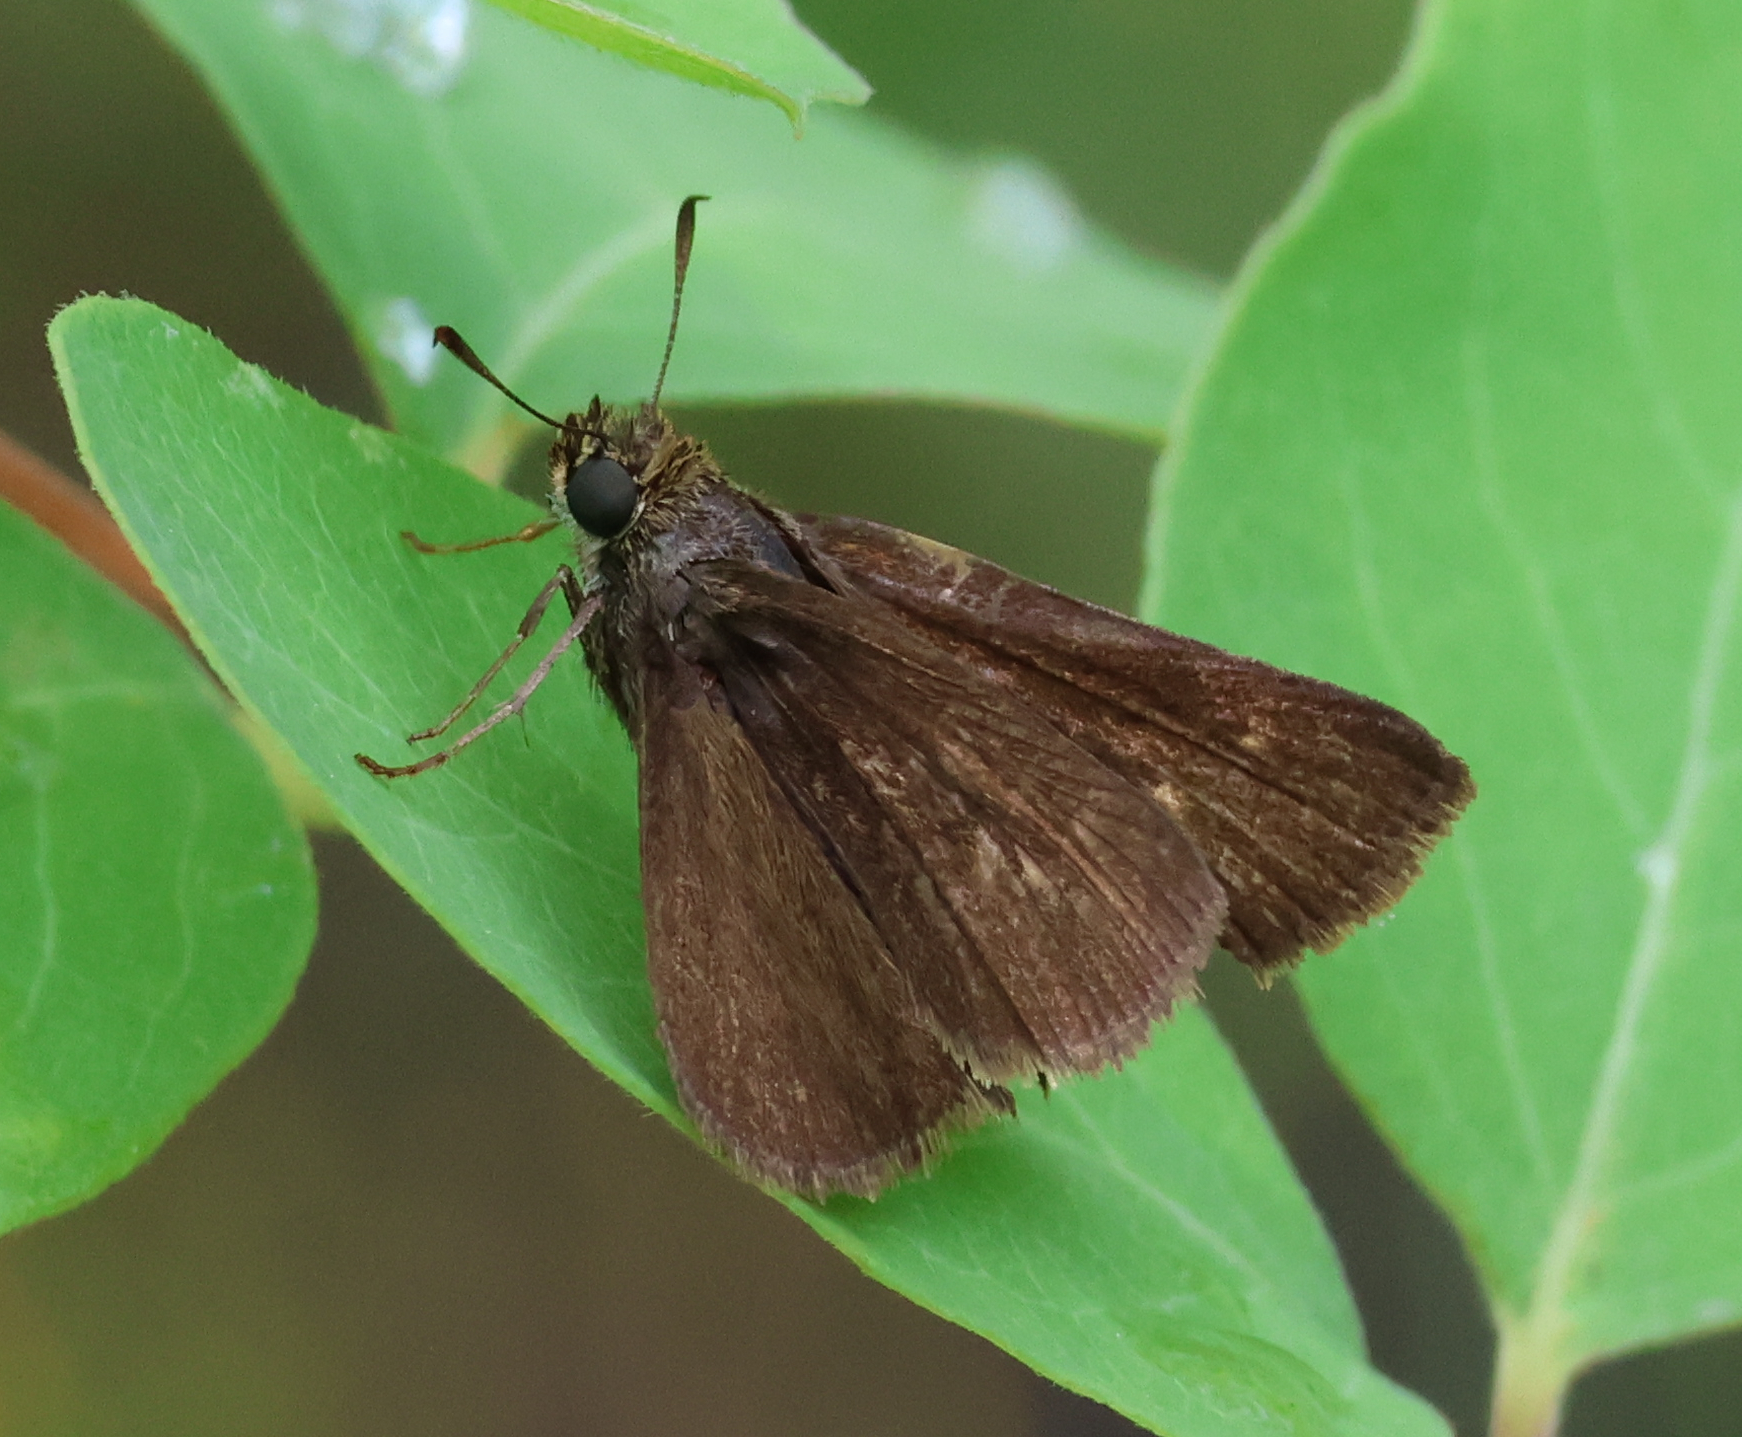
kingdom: Animalia
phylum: Arthropoda
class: Insecta
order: Lepidoptera
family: Hesperiidae
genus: Euphyes
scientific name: Euphyes vestris
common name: Dun skipper
